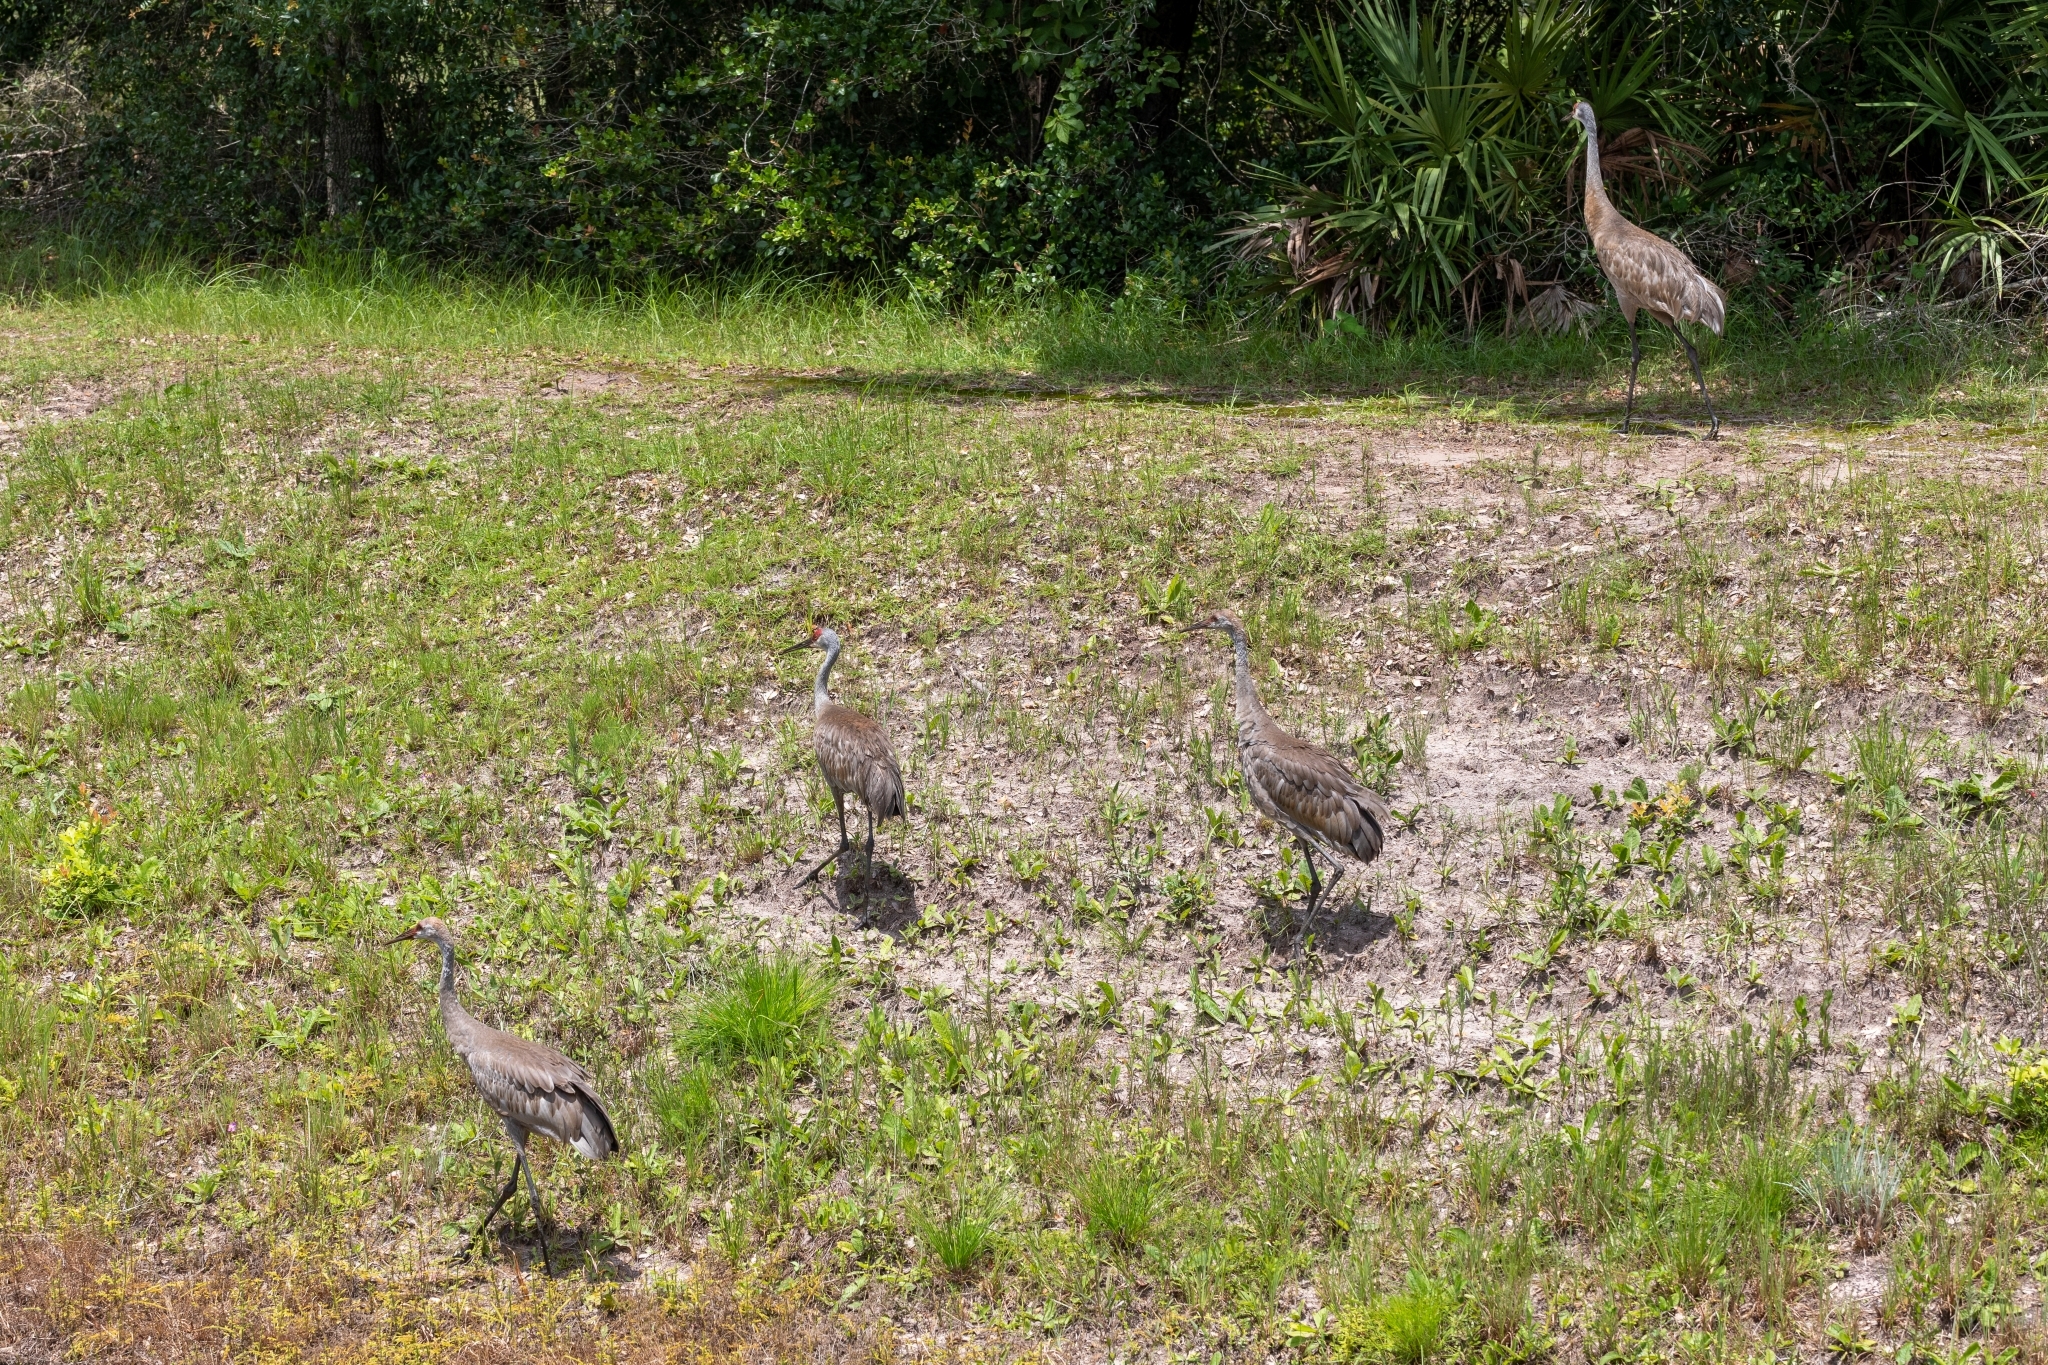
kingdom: Animalia
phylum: Chordata
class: Aves
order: Gruiformes
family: Gruidae
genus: Grus
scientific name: Grus canadensis
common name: Sandhill crane
